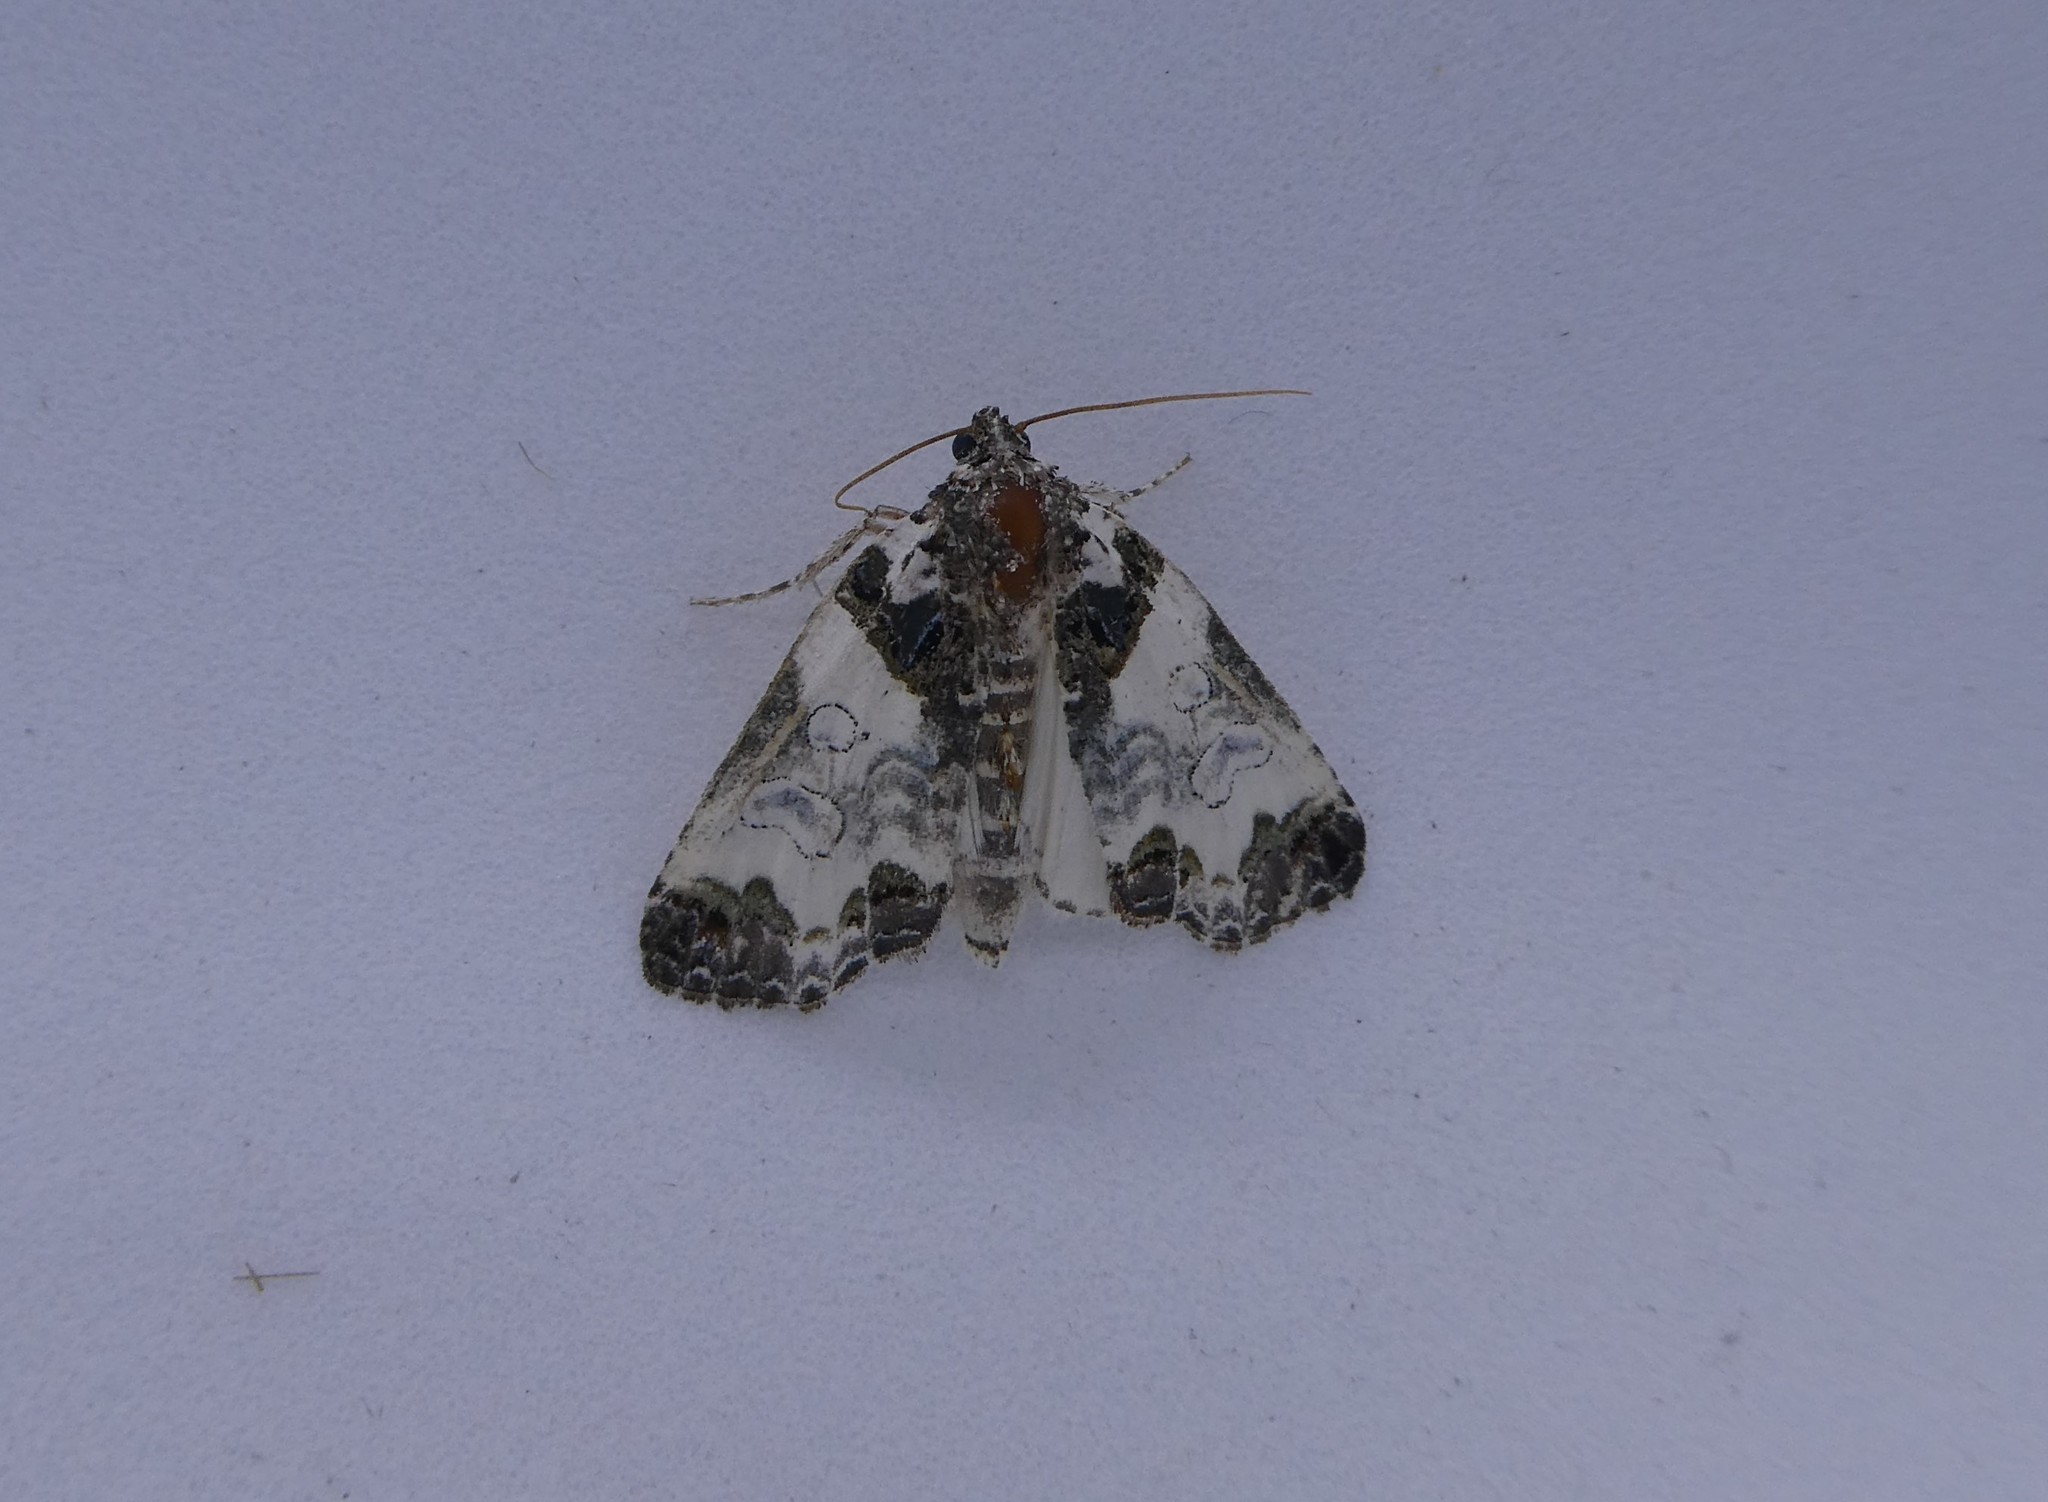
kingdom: Animalia
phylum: Arthropoda
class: Insecta
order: Lepidoptera
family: Noctuidae
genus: Cerma
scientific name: Cerma cerintha
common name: Tufted bird-dropping moth
